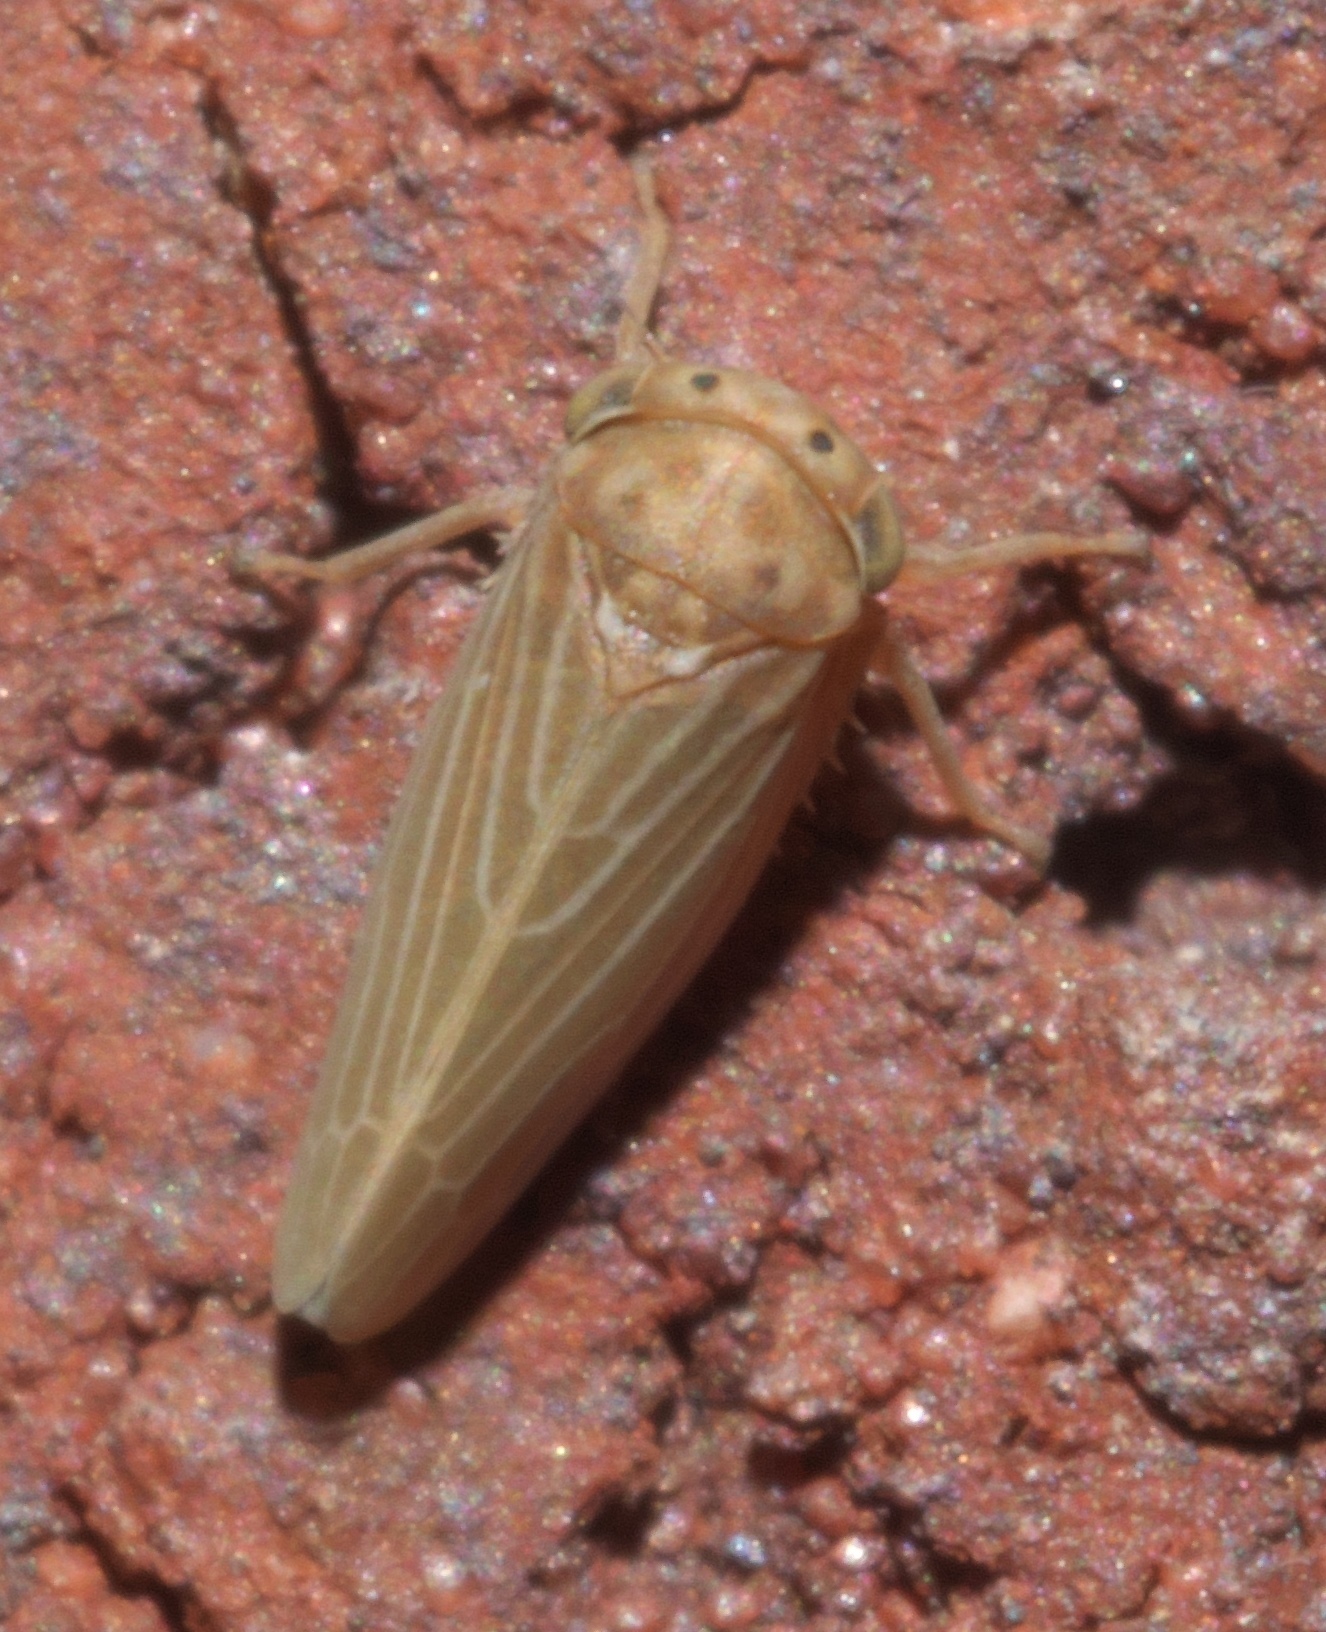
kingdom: Animalia
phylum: Arthropoda
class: Insecta
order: Hemiptera
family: Cicadellidae
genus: Agallia
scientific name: Agallia constricta
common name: The constricted leafhopper
